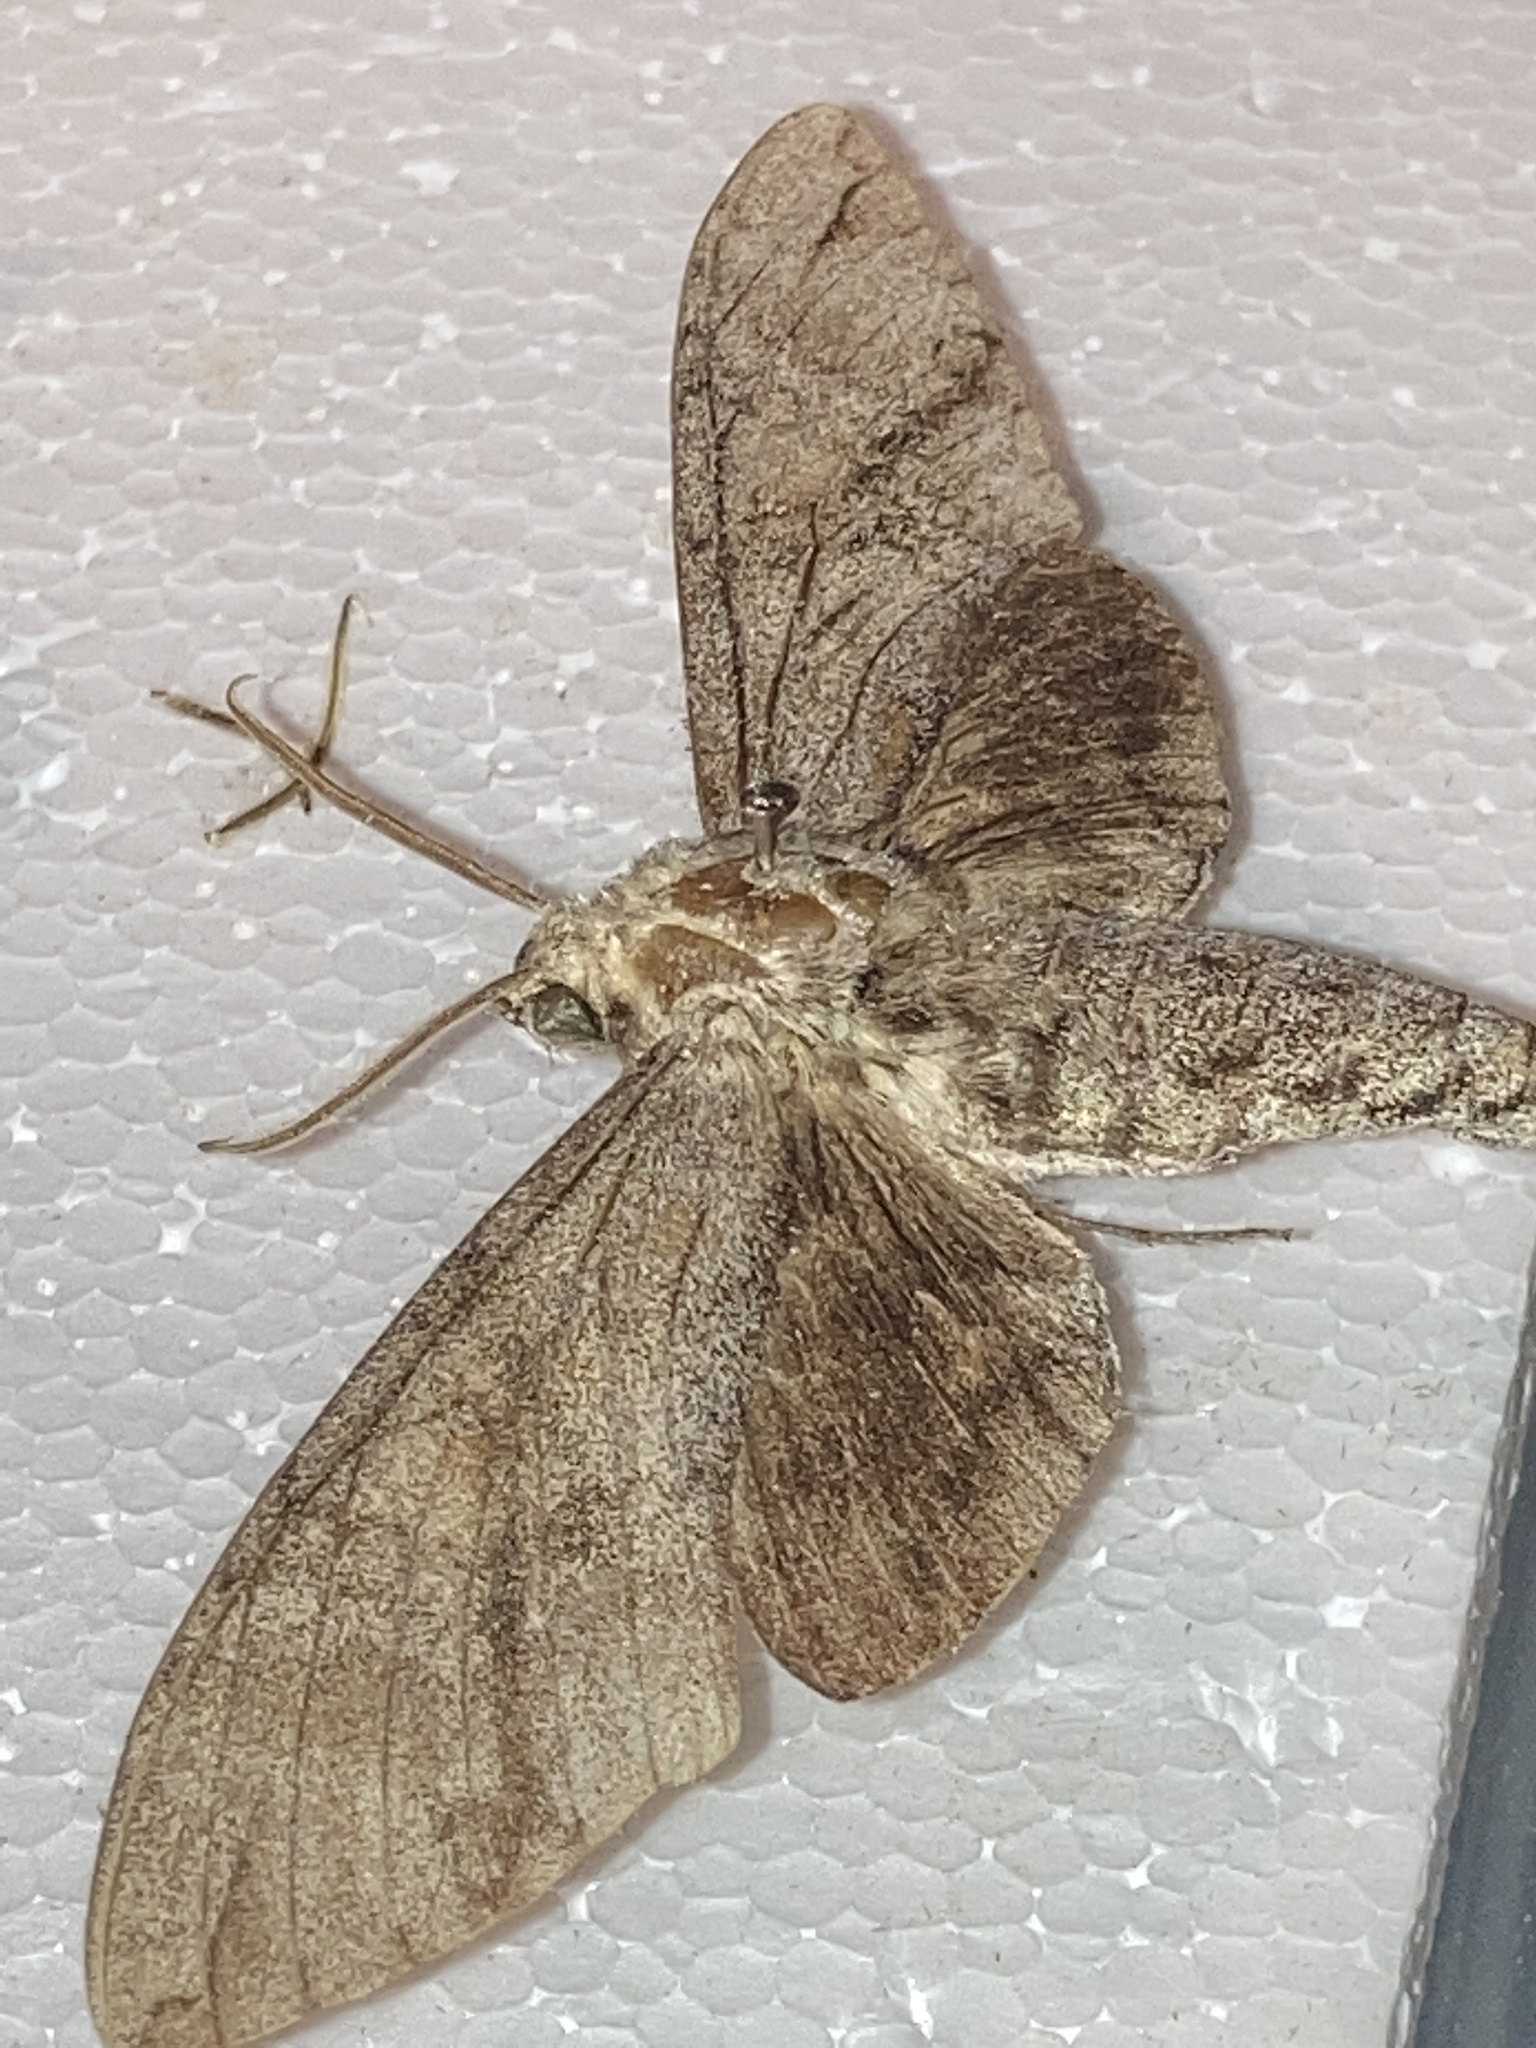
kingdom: Animalia
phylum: Arthropoda
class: Insecta
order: Lepidoptera
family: Sphingidae
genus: Manduca
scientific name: Manduca jasminearum
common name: Ash sphinx
